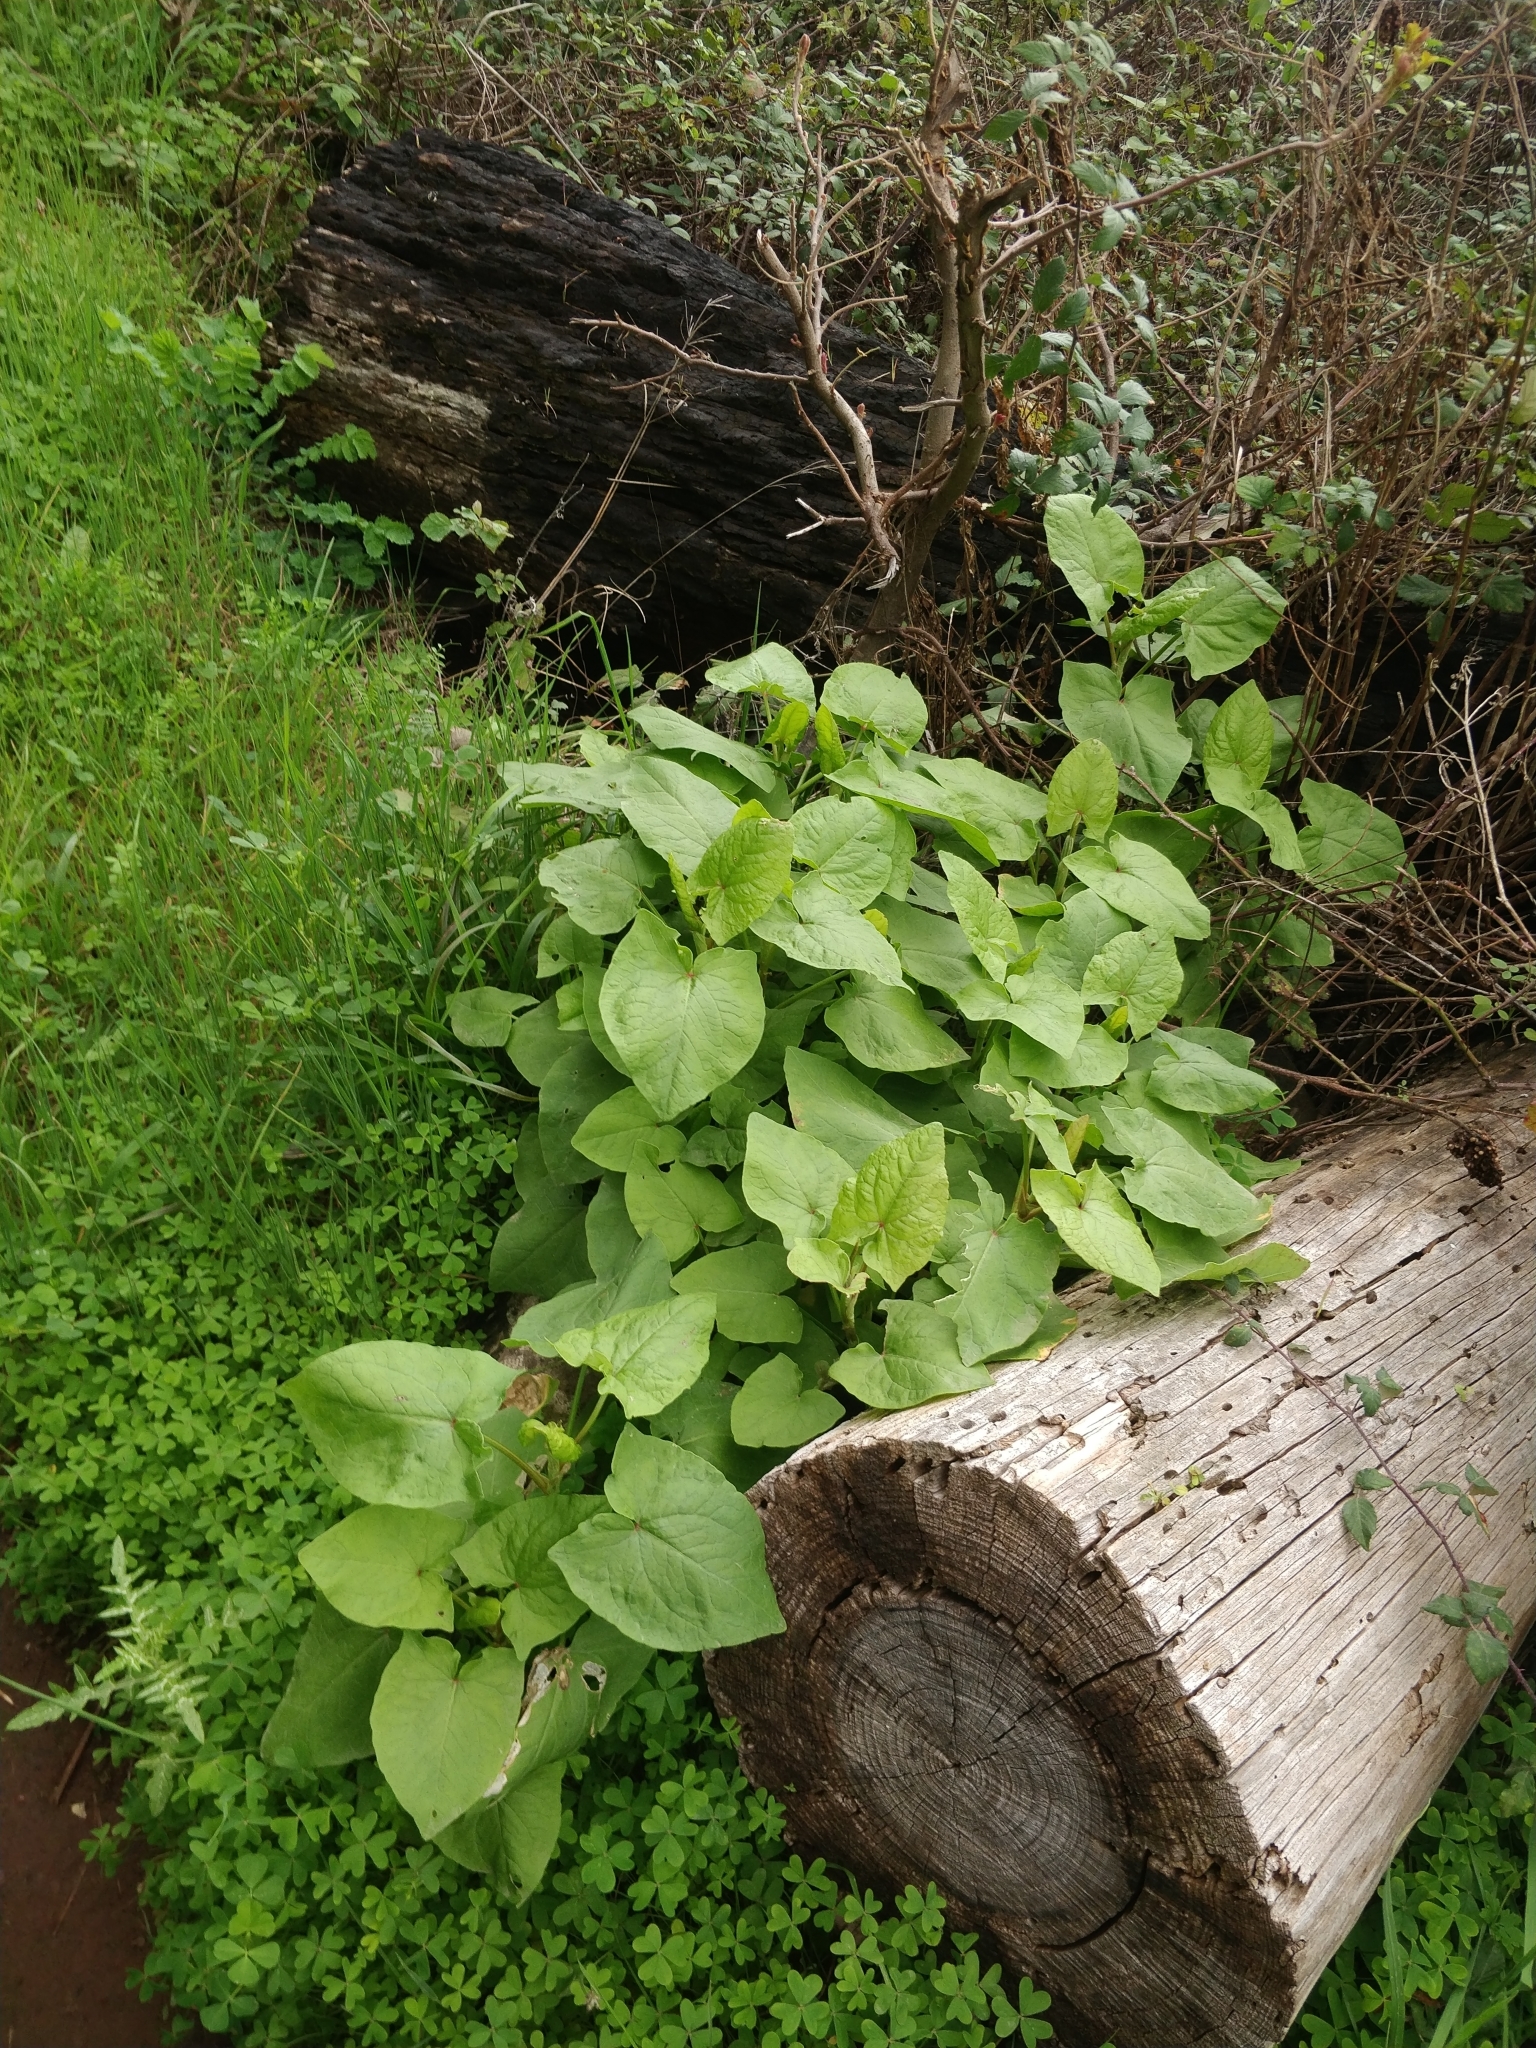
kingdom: Plantae
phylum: Tracheophyta
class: Magnoliopsida
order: Caryophyllales
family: Polygonaceae
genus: Rumex
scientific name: Rumex maderensis
